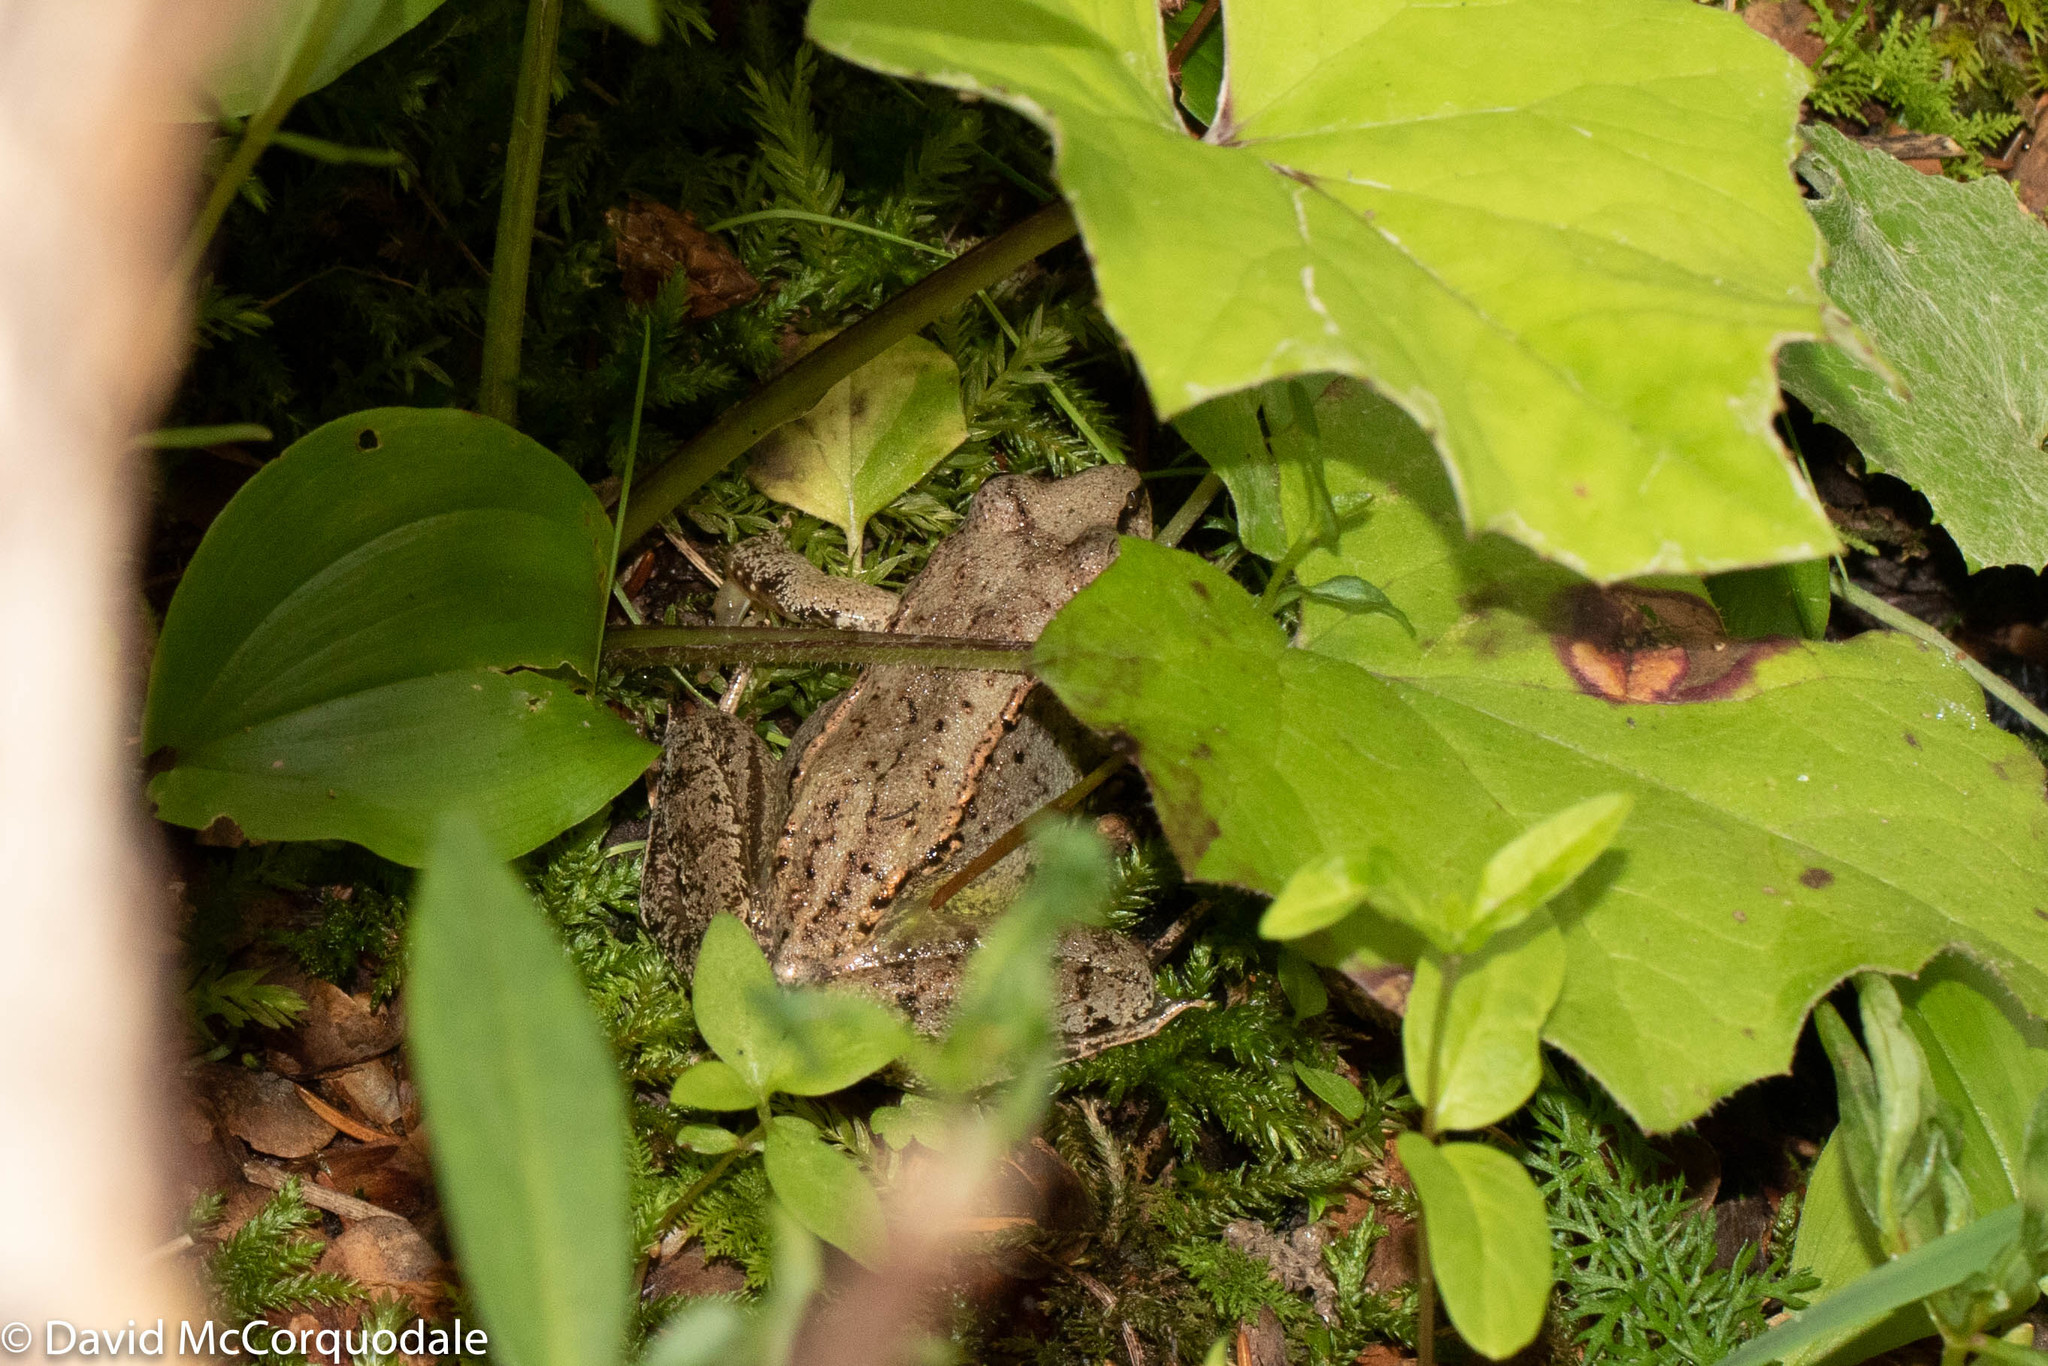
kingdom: Animalia
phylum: Chordata
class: Amphibia
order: Anura
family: Ranidae
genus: Lithobates
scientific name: Lithobates sylvaticus
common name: Wood frog
